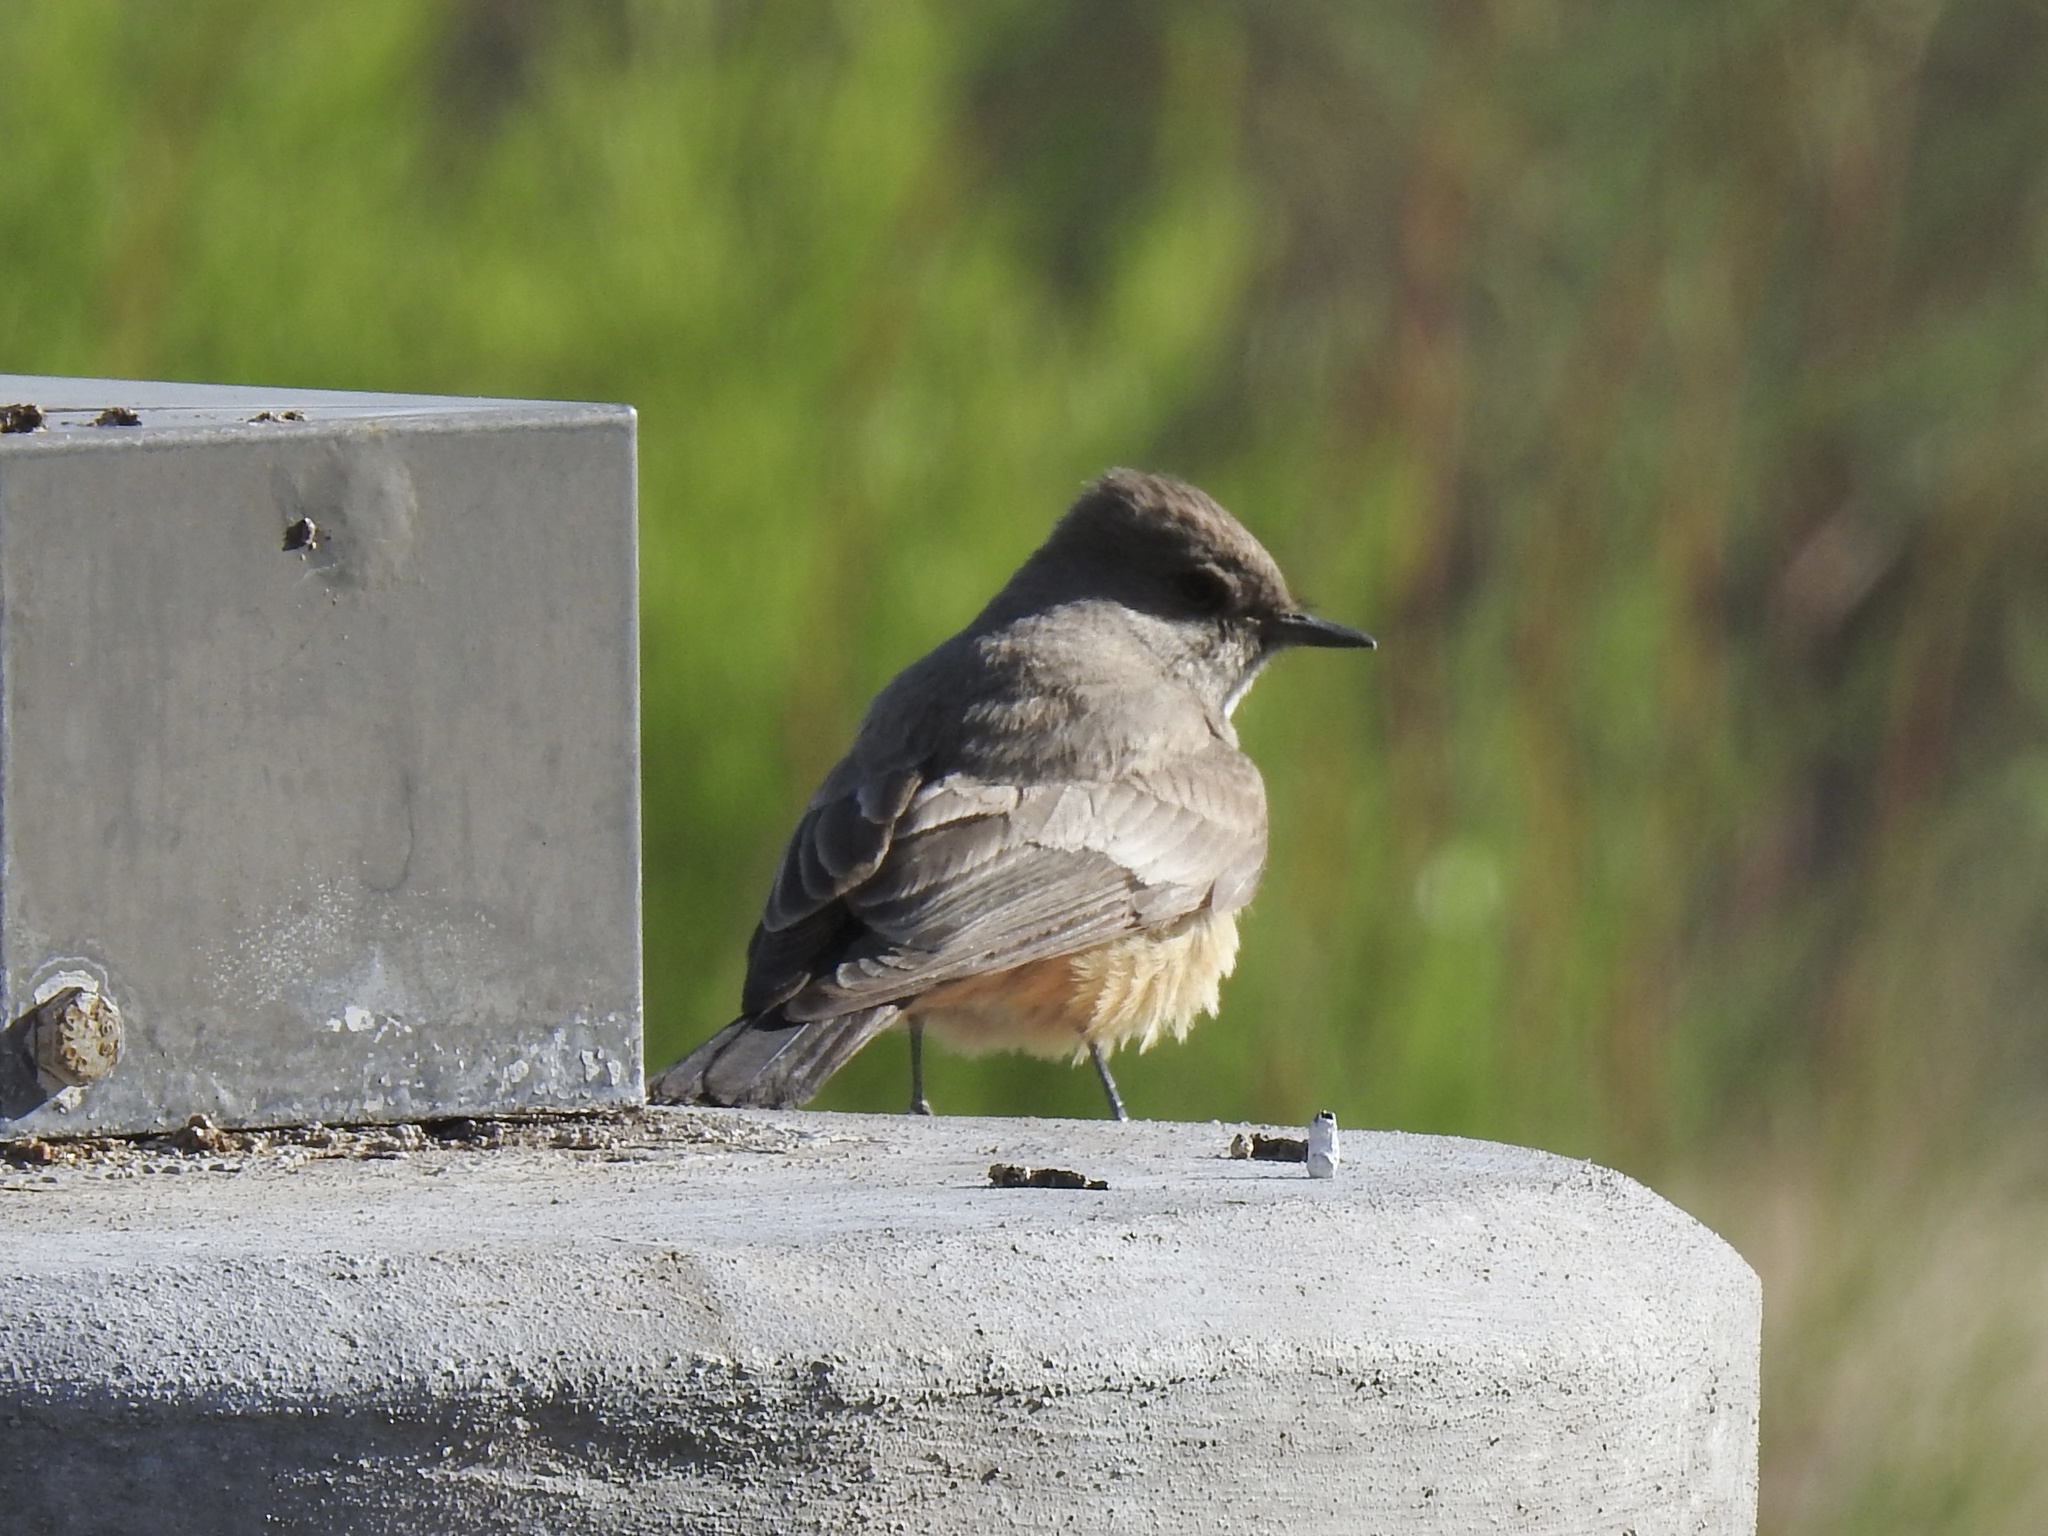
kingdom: Animalia
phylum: Chordata
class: Aves
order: Passeriformes
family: Tyrannidae
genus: Sayornis
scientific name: Sayornis saya
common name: Say's phoebe
